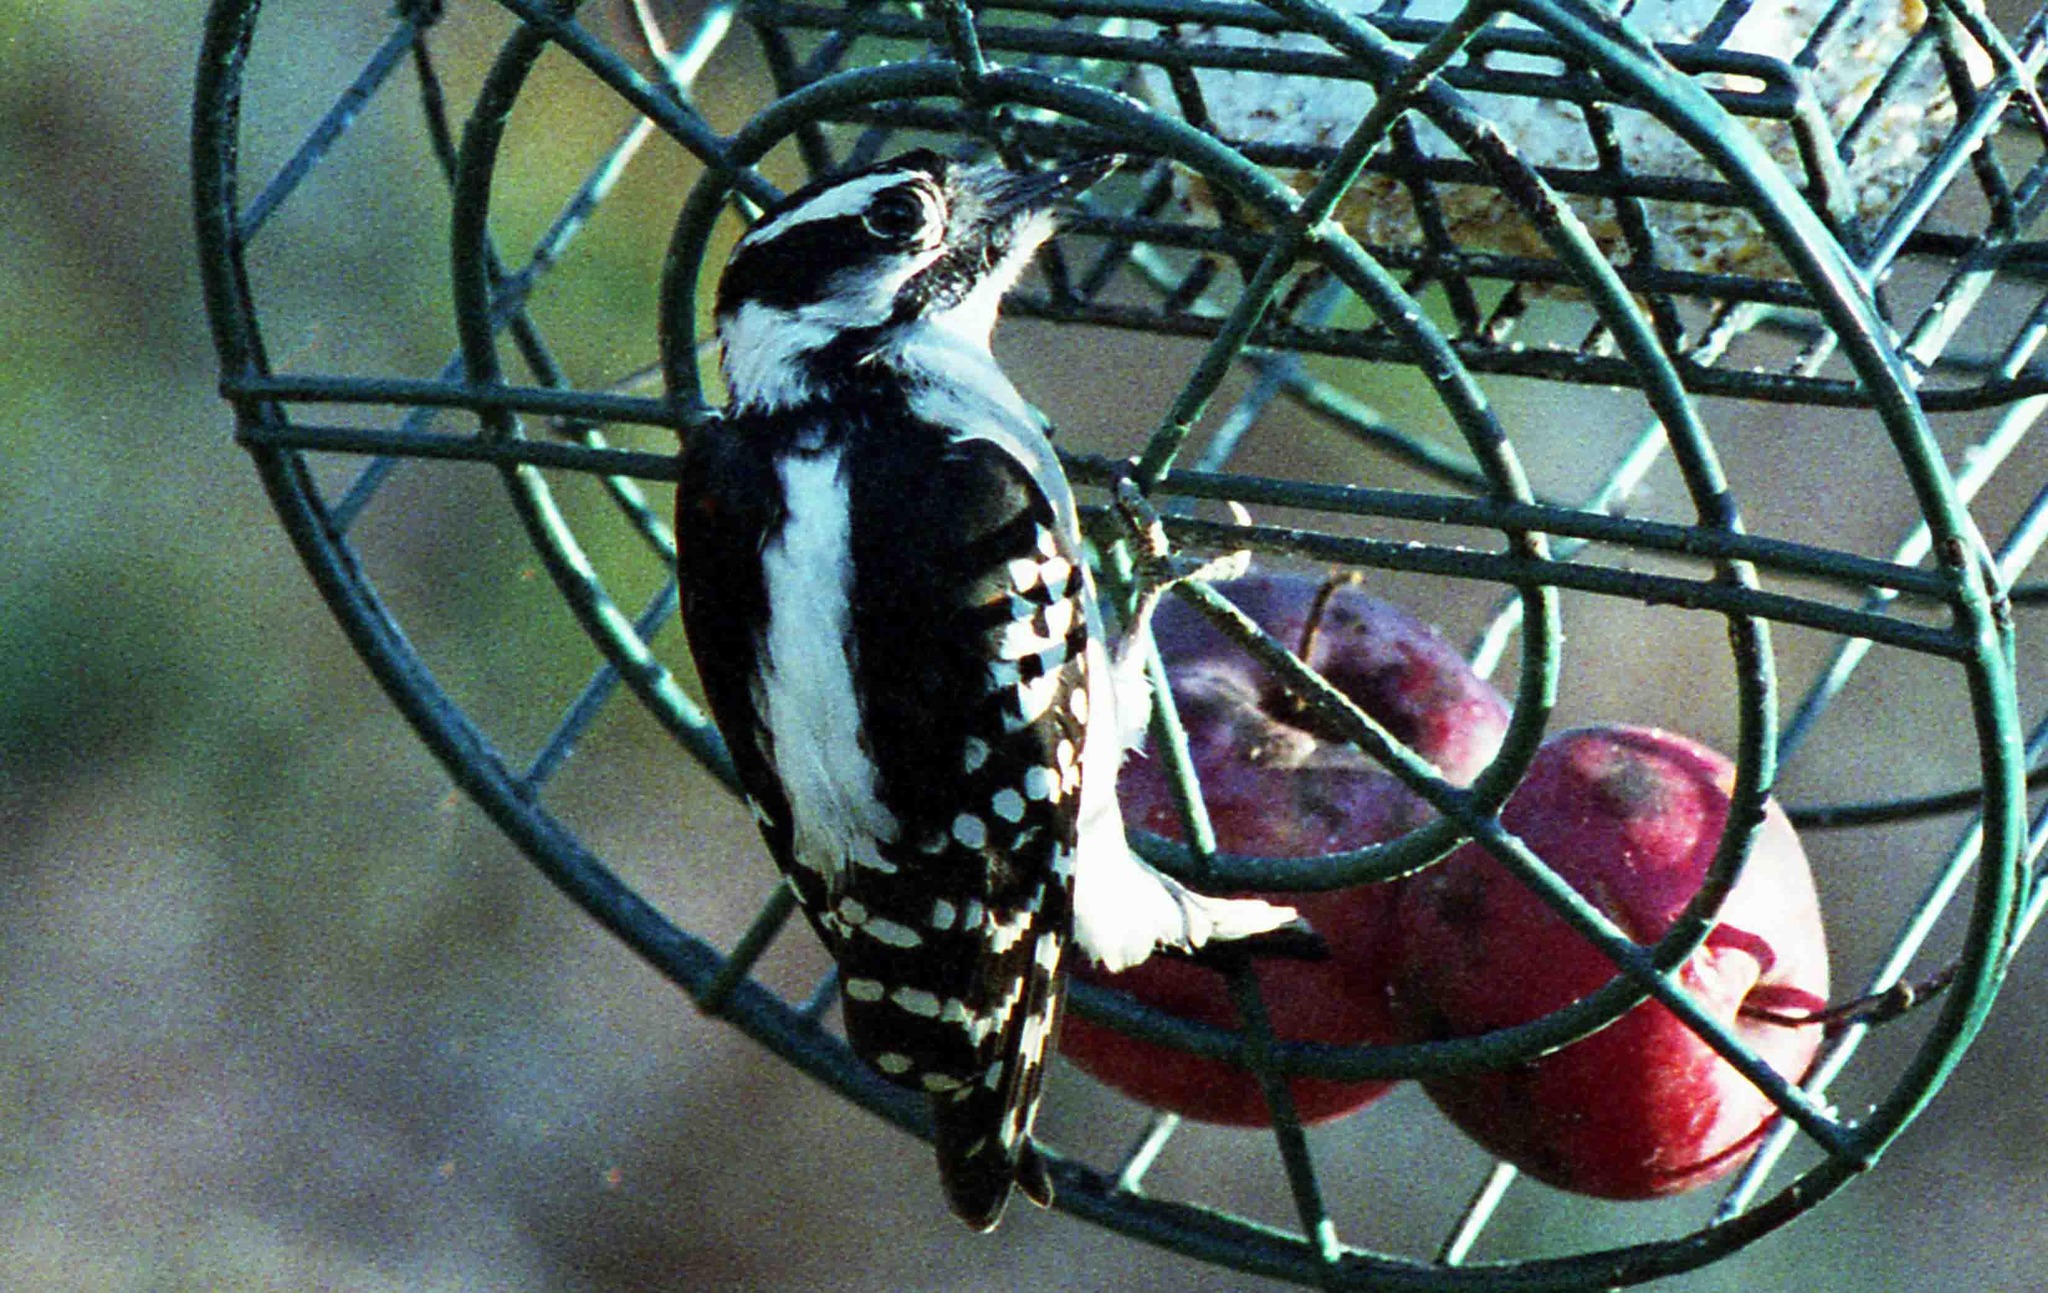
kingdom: Animalia
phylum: Chordata
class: Aves
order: Piciformes
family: Picidae
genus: Dryobates
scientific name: Dryobates pubescens
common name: Downy woodpecker
